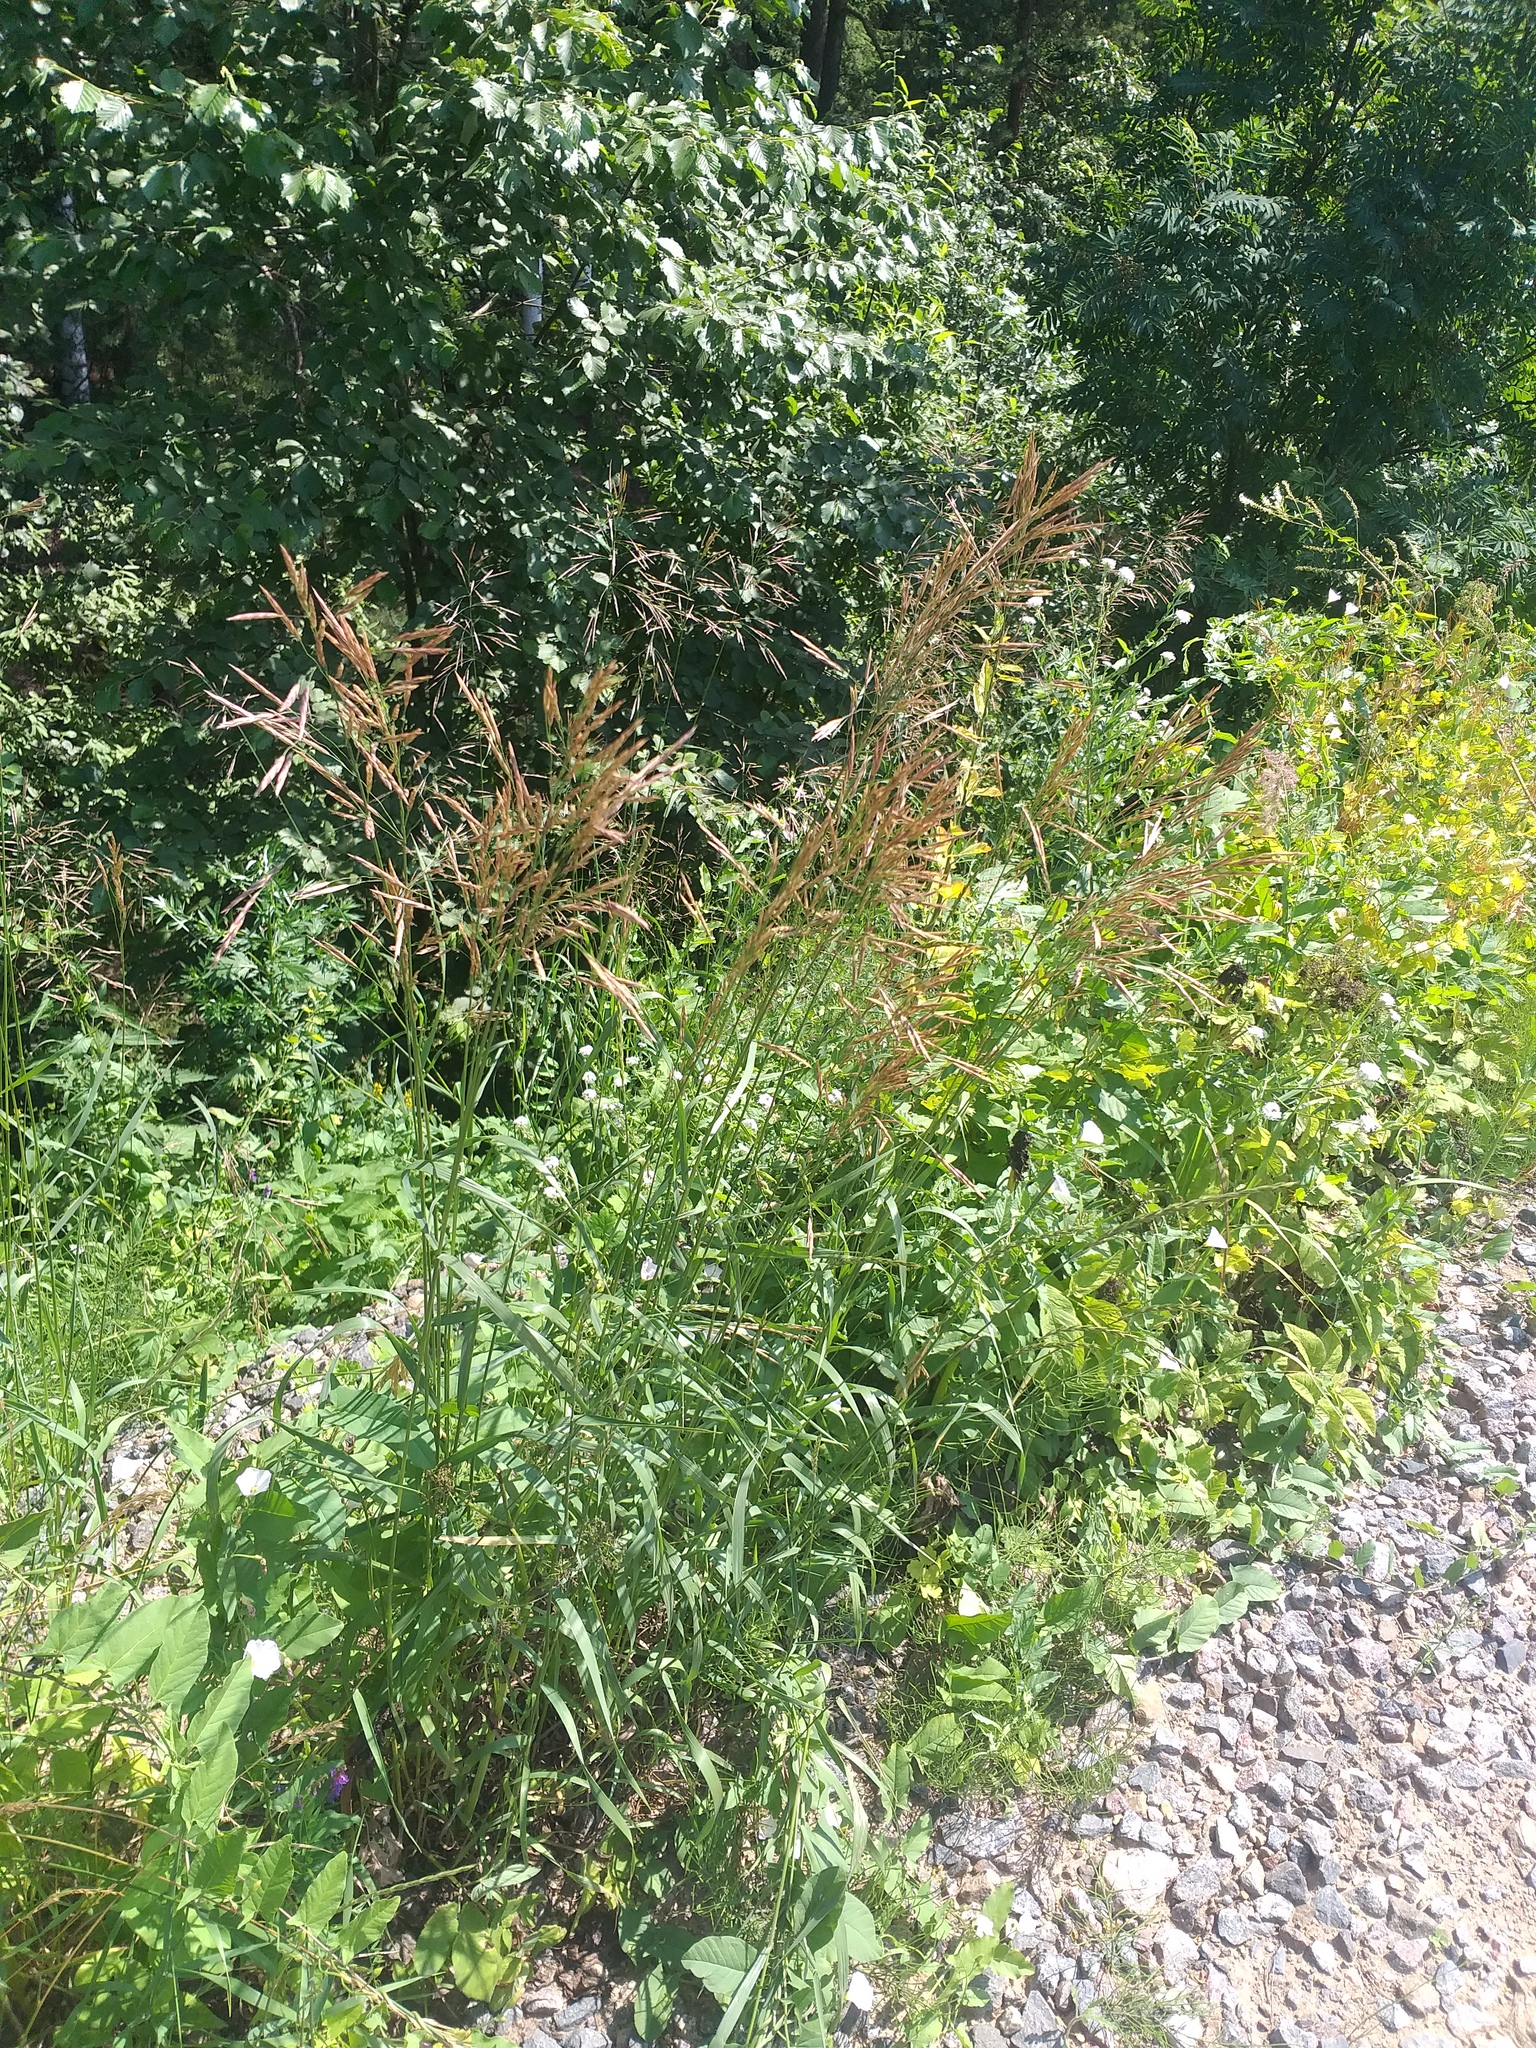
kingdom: Plantae
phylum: Tracheophyta
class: Liliopsida
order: Poales
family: Poaceae
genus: Bromus
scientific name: Bromus inermis
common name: Smooth brome
